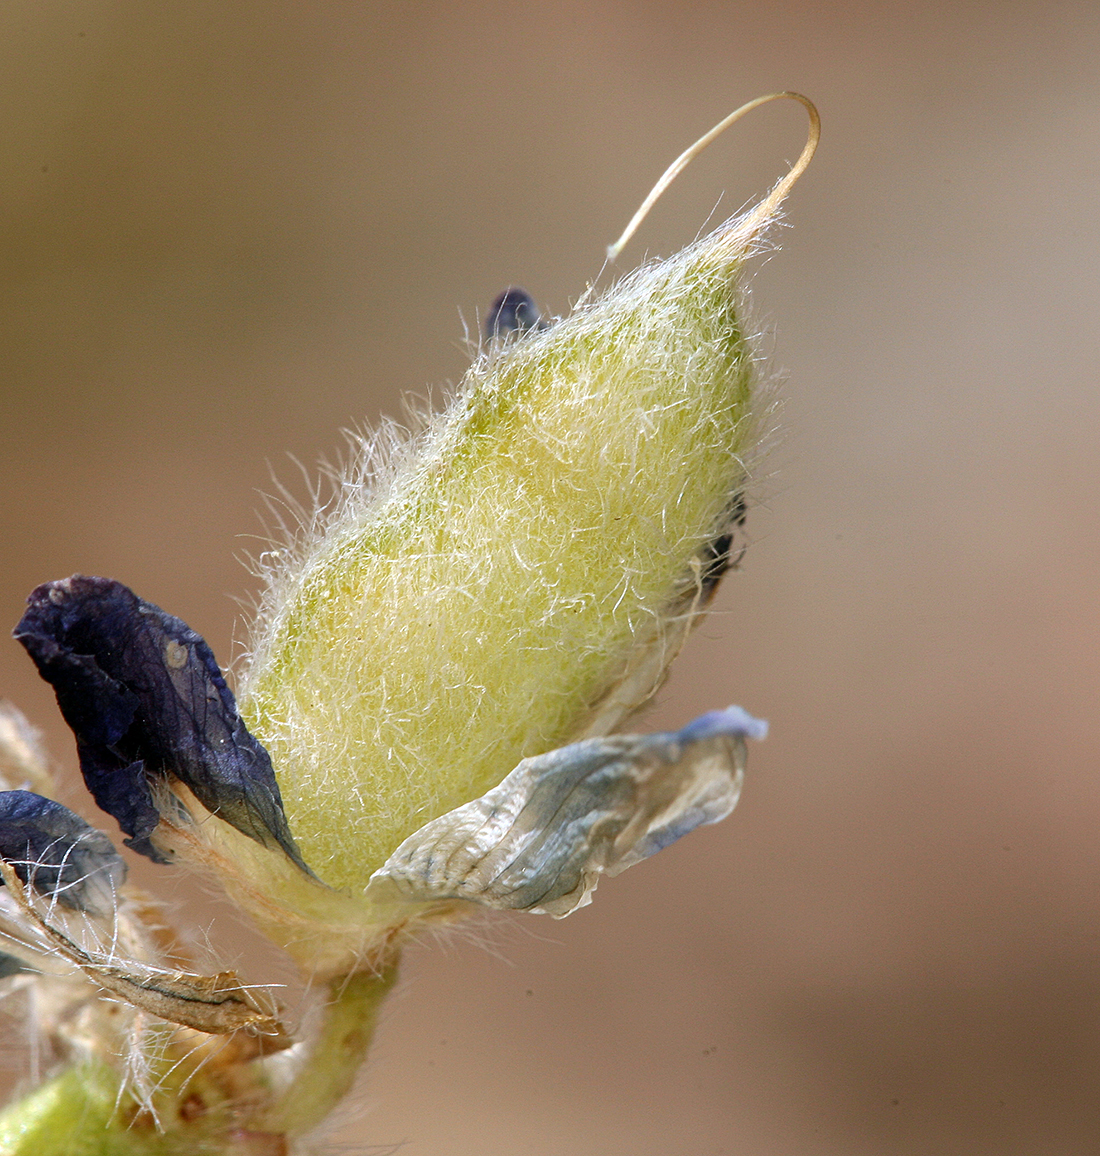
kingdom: Plantae
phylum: Tracheophyta
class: Magnoliopsida
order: Fabales
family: Fabaceae
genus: Lupinus
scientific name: Lupinus sellulus
